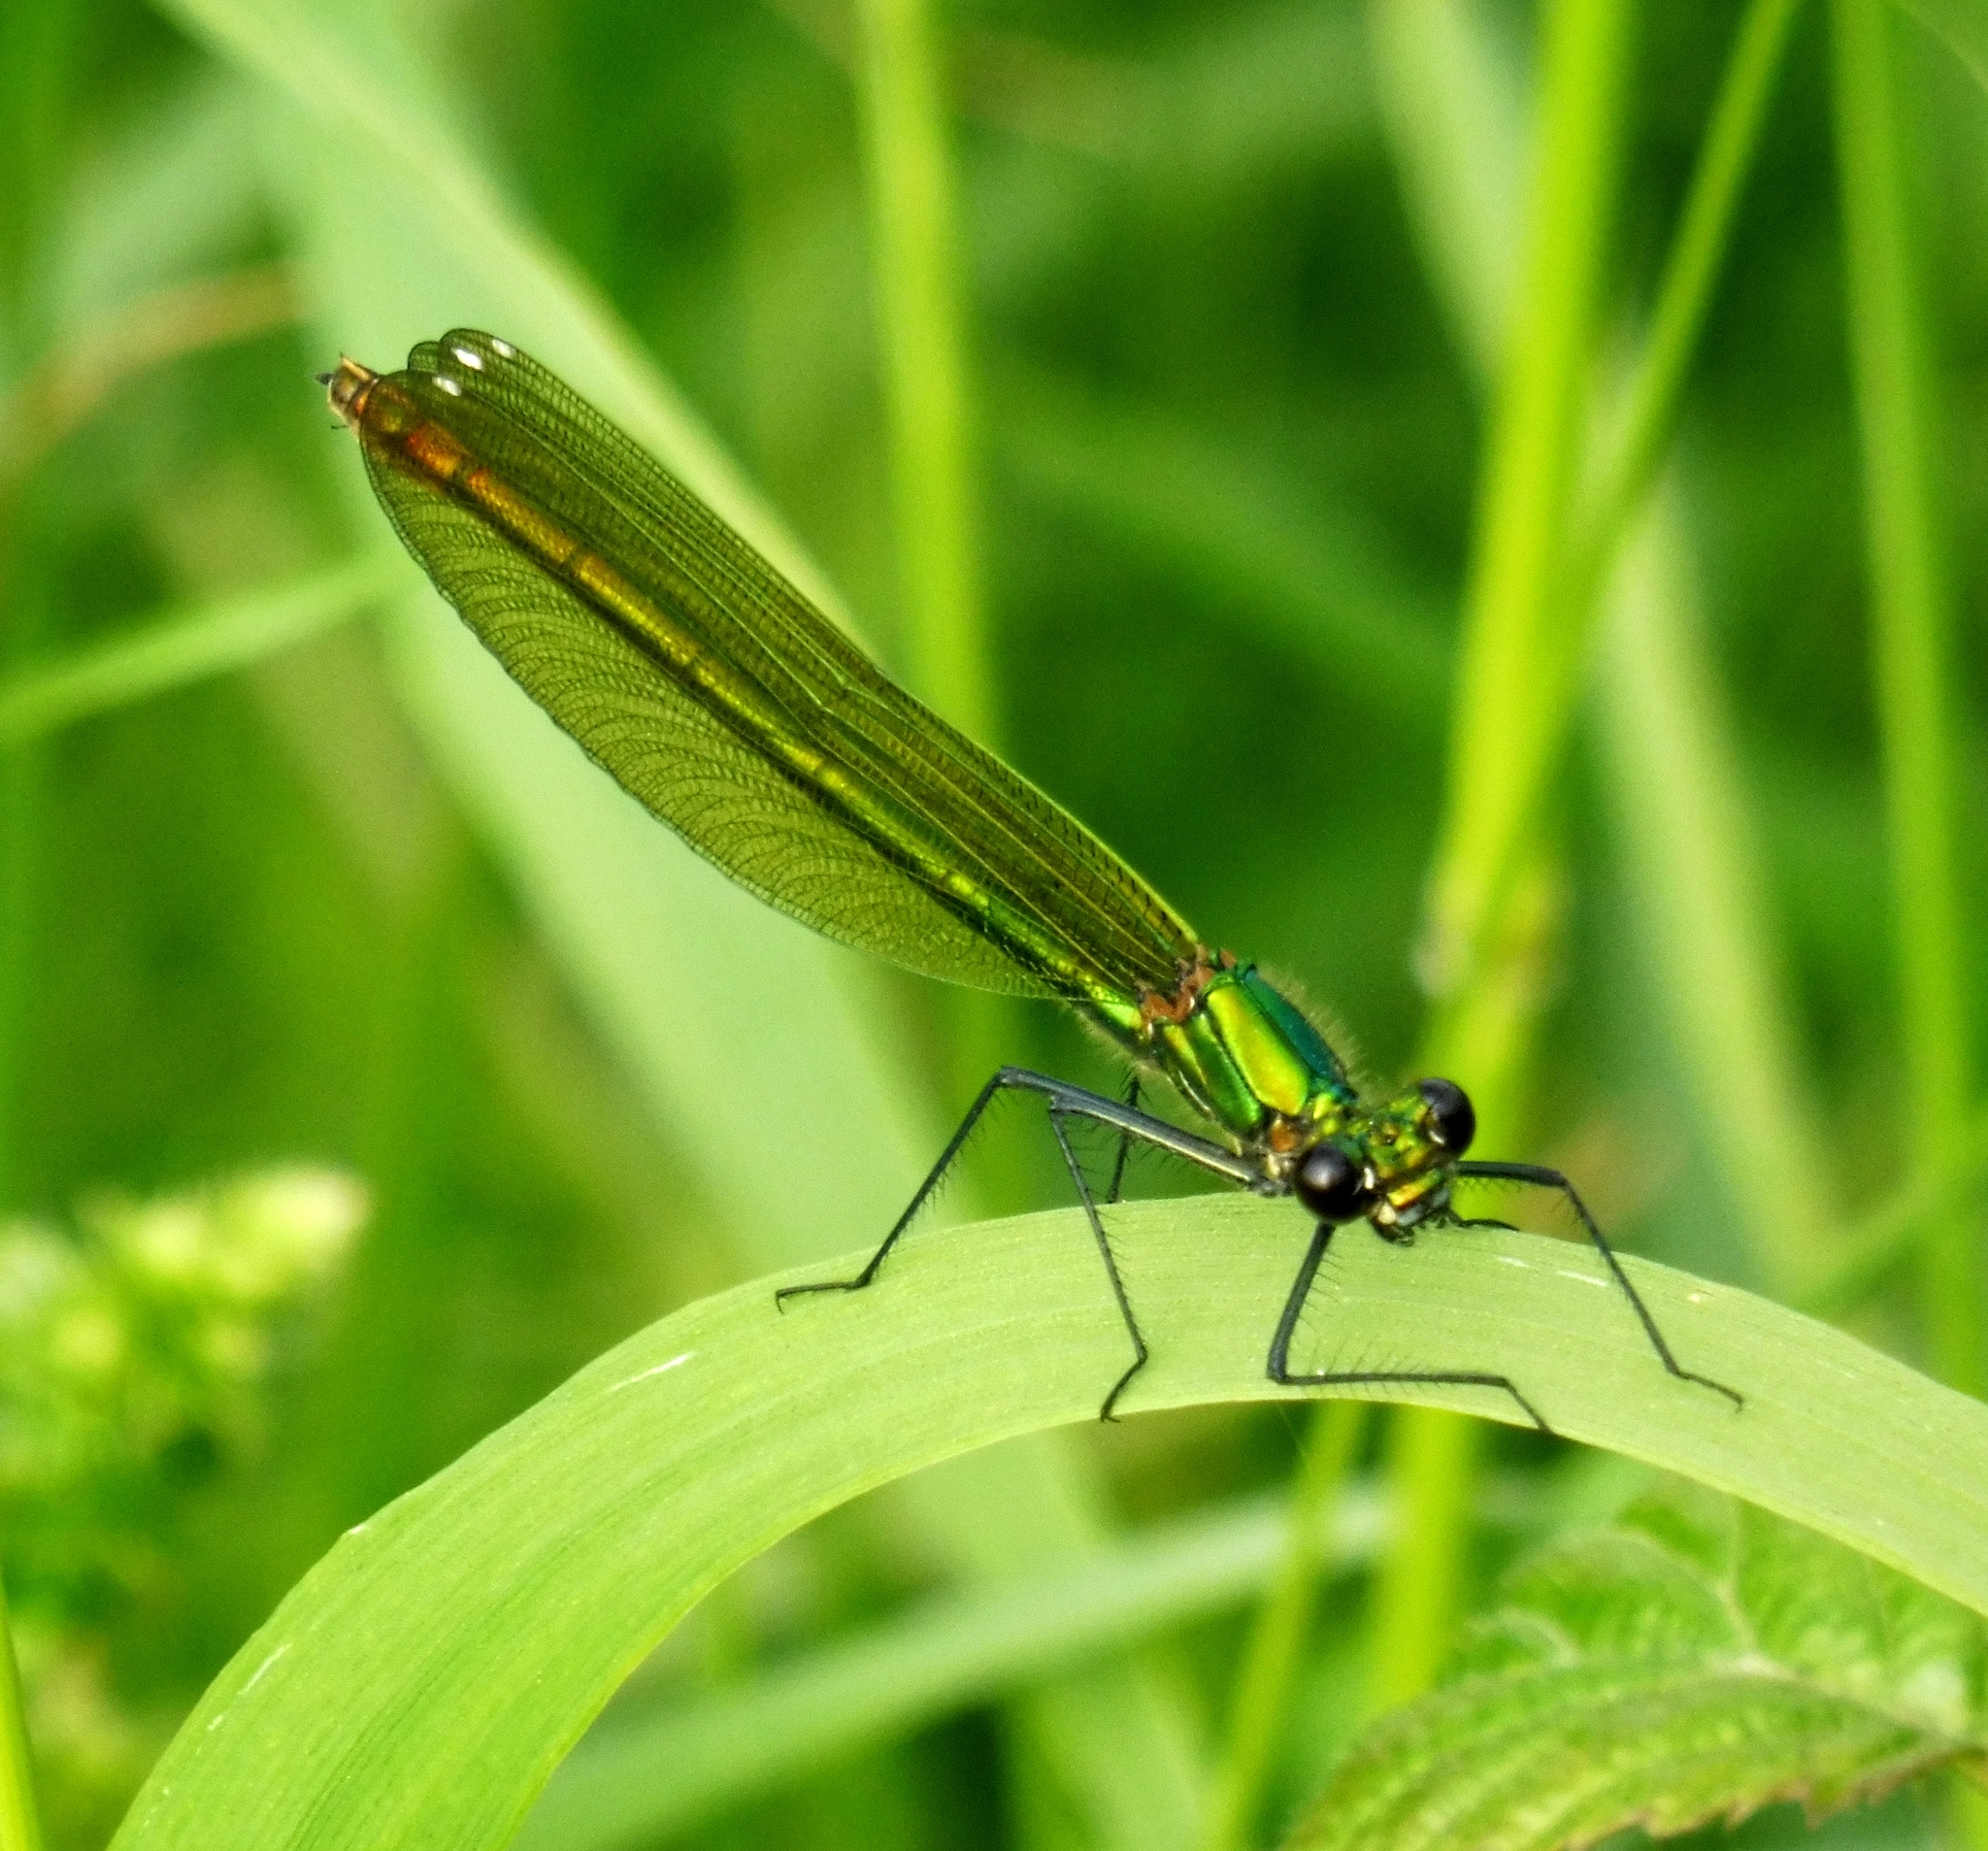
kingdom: Animalia
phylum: Arthropoda
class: Insecta
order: Odonata
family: Calopterygidae
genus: Calopteryx
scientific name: Calopteryx splendens
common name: Banded demoiselle
